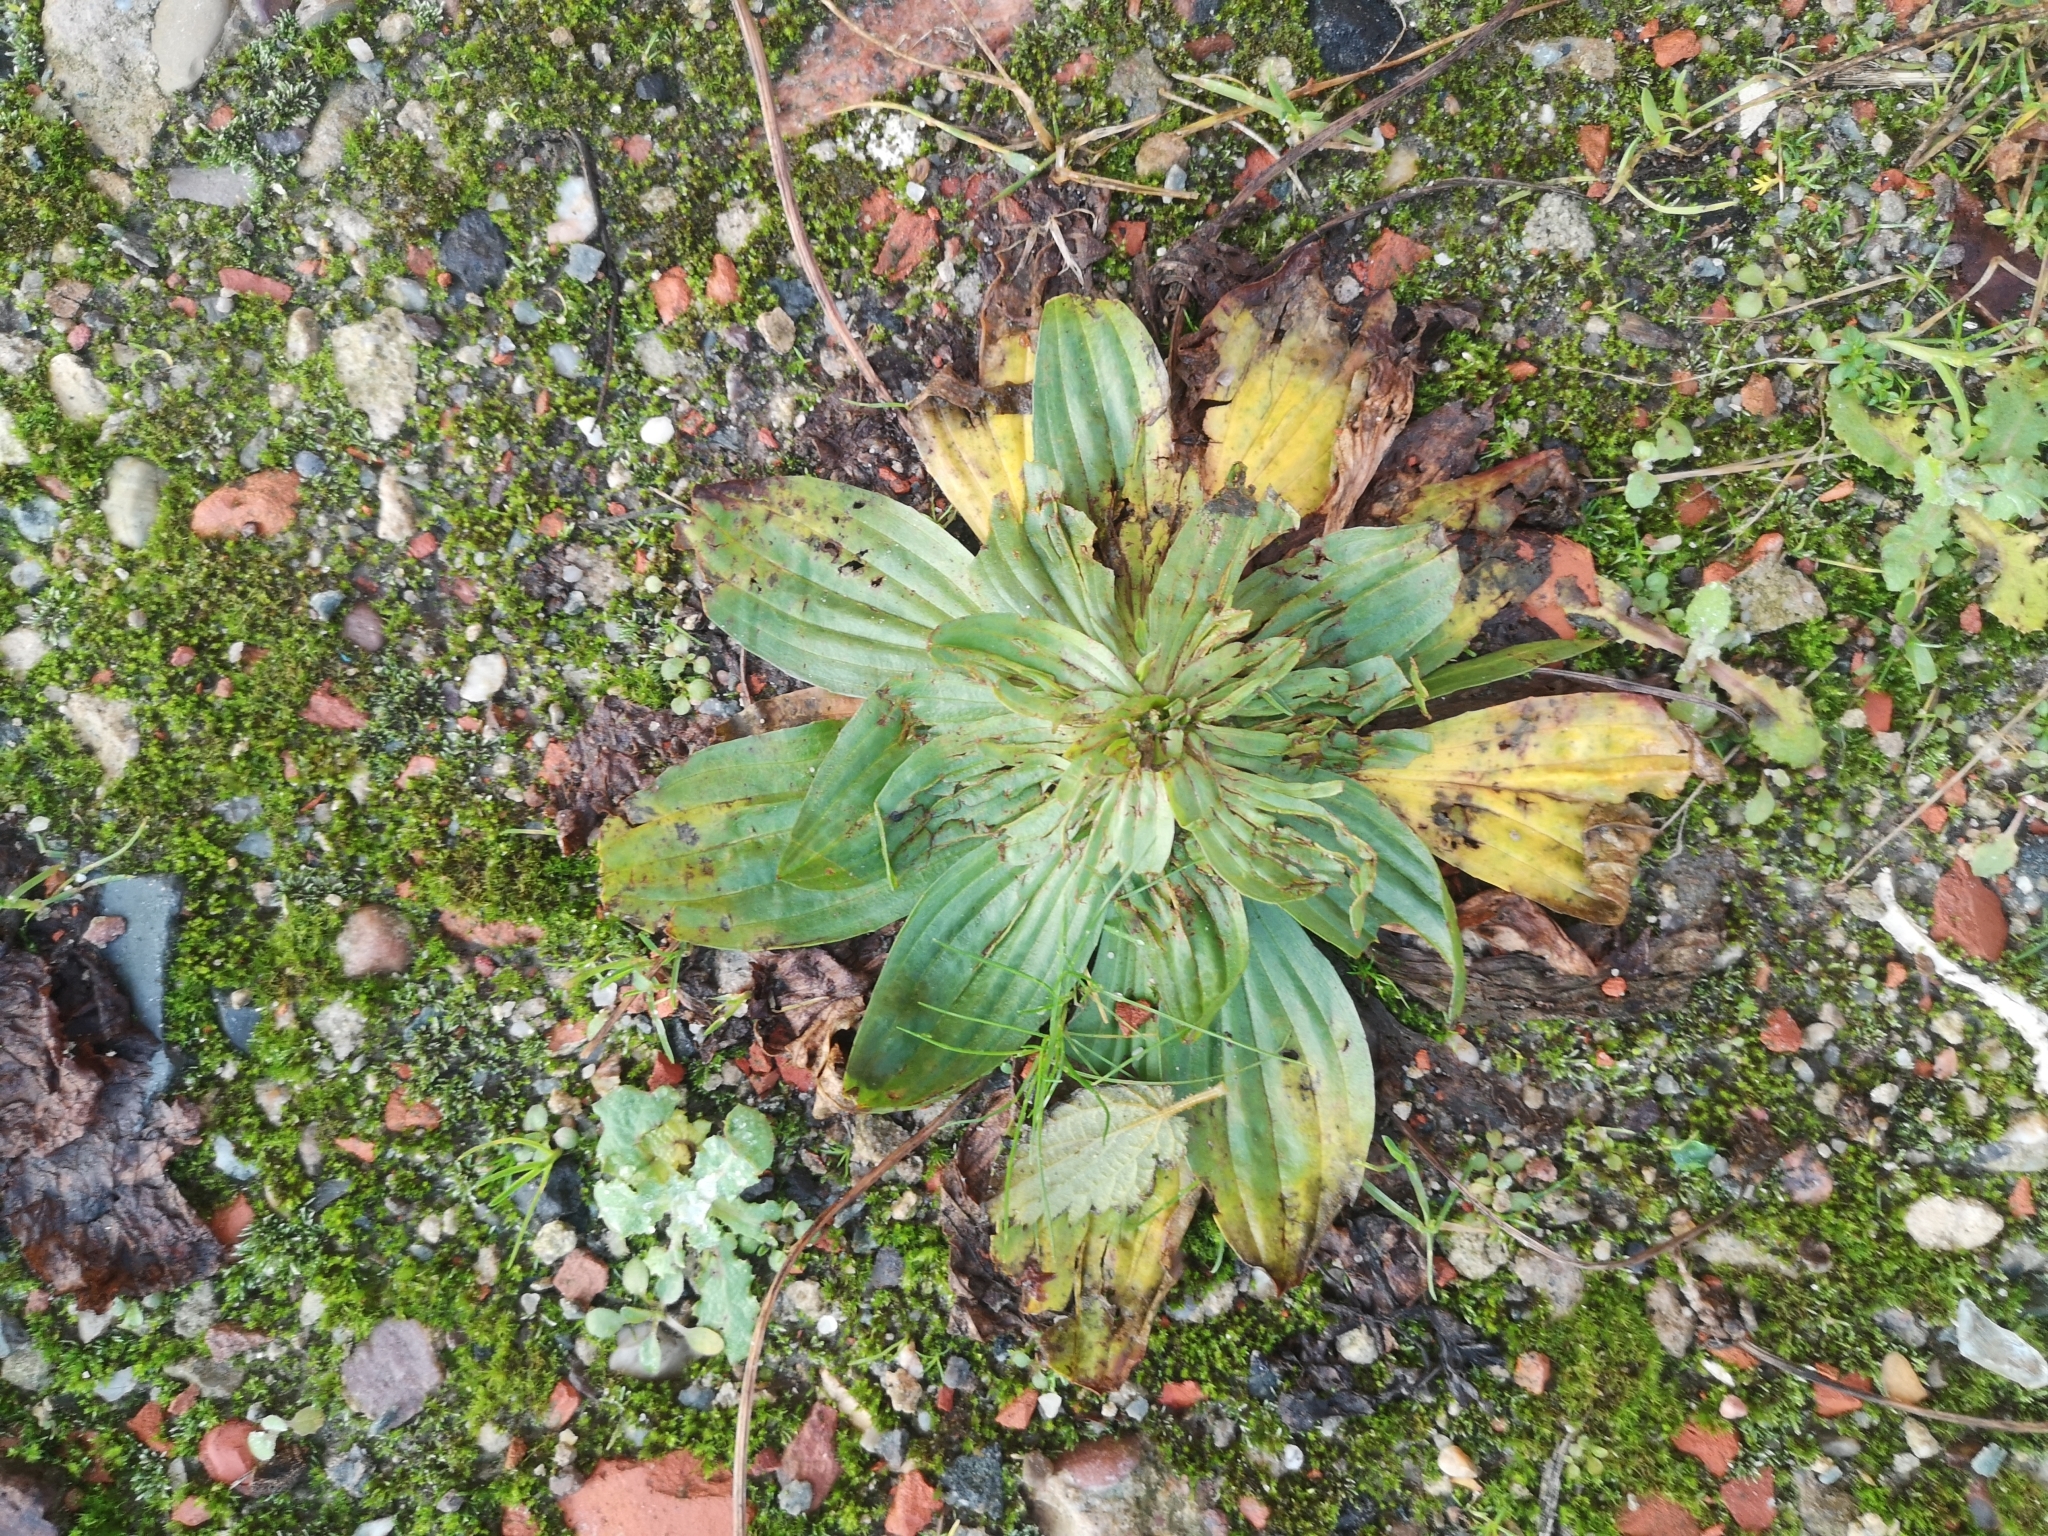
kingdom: Plantae
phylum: Tracheophyta
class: Magnoliopsida
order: Lamiales
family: Plantaginaceae
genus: Plantago
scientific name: Plantago lanceolata
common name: Ribwort plantain
